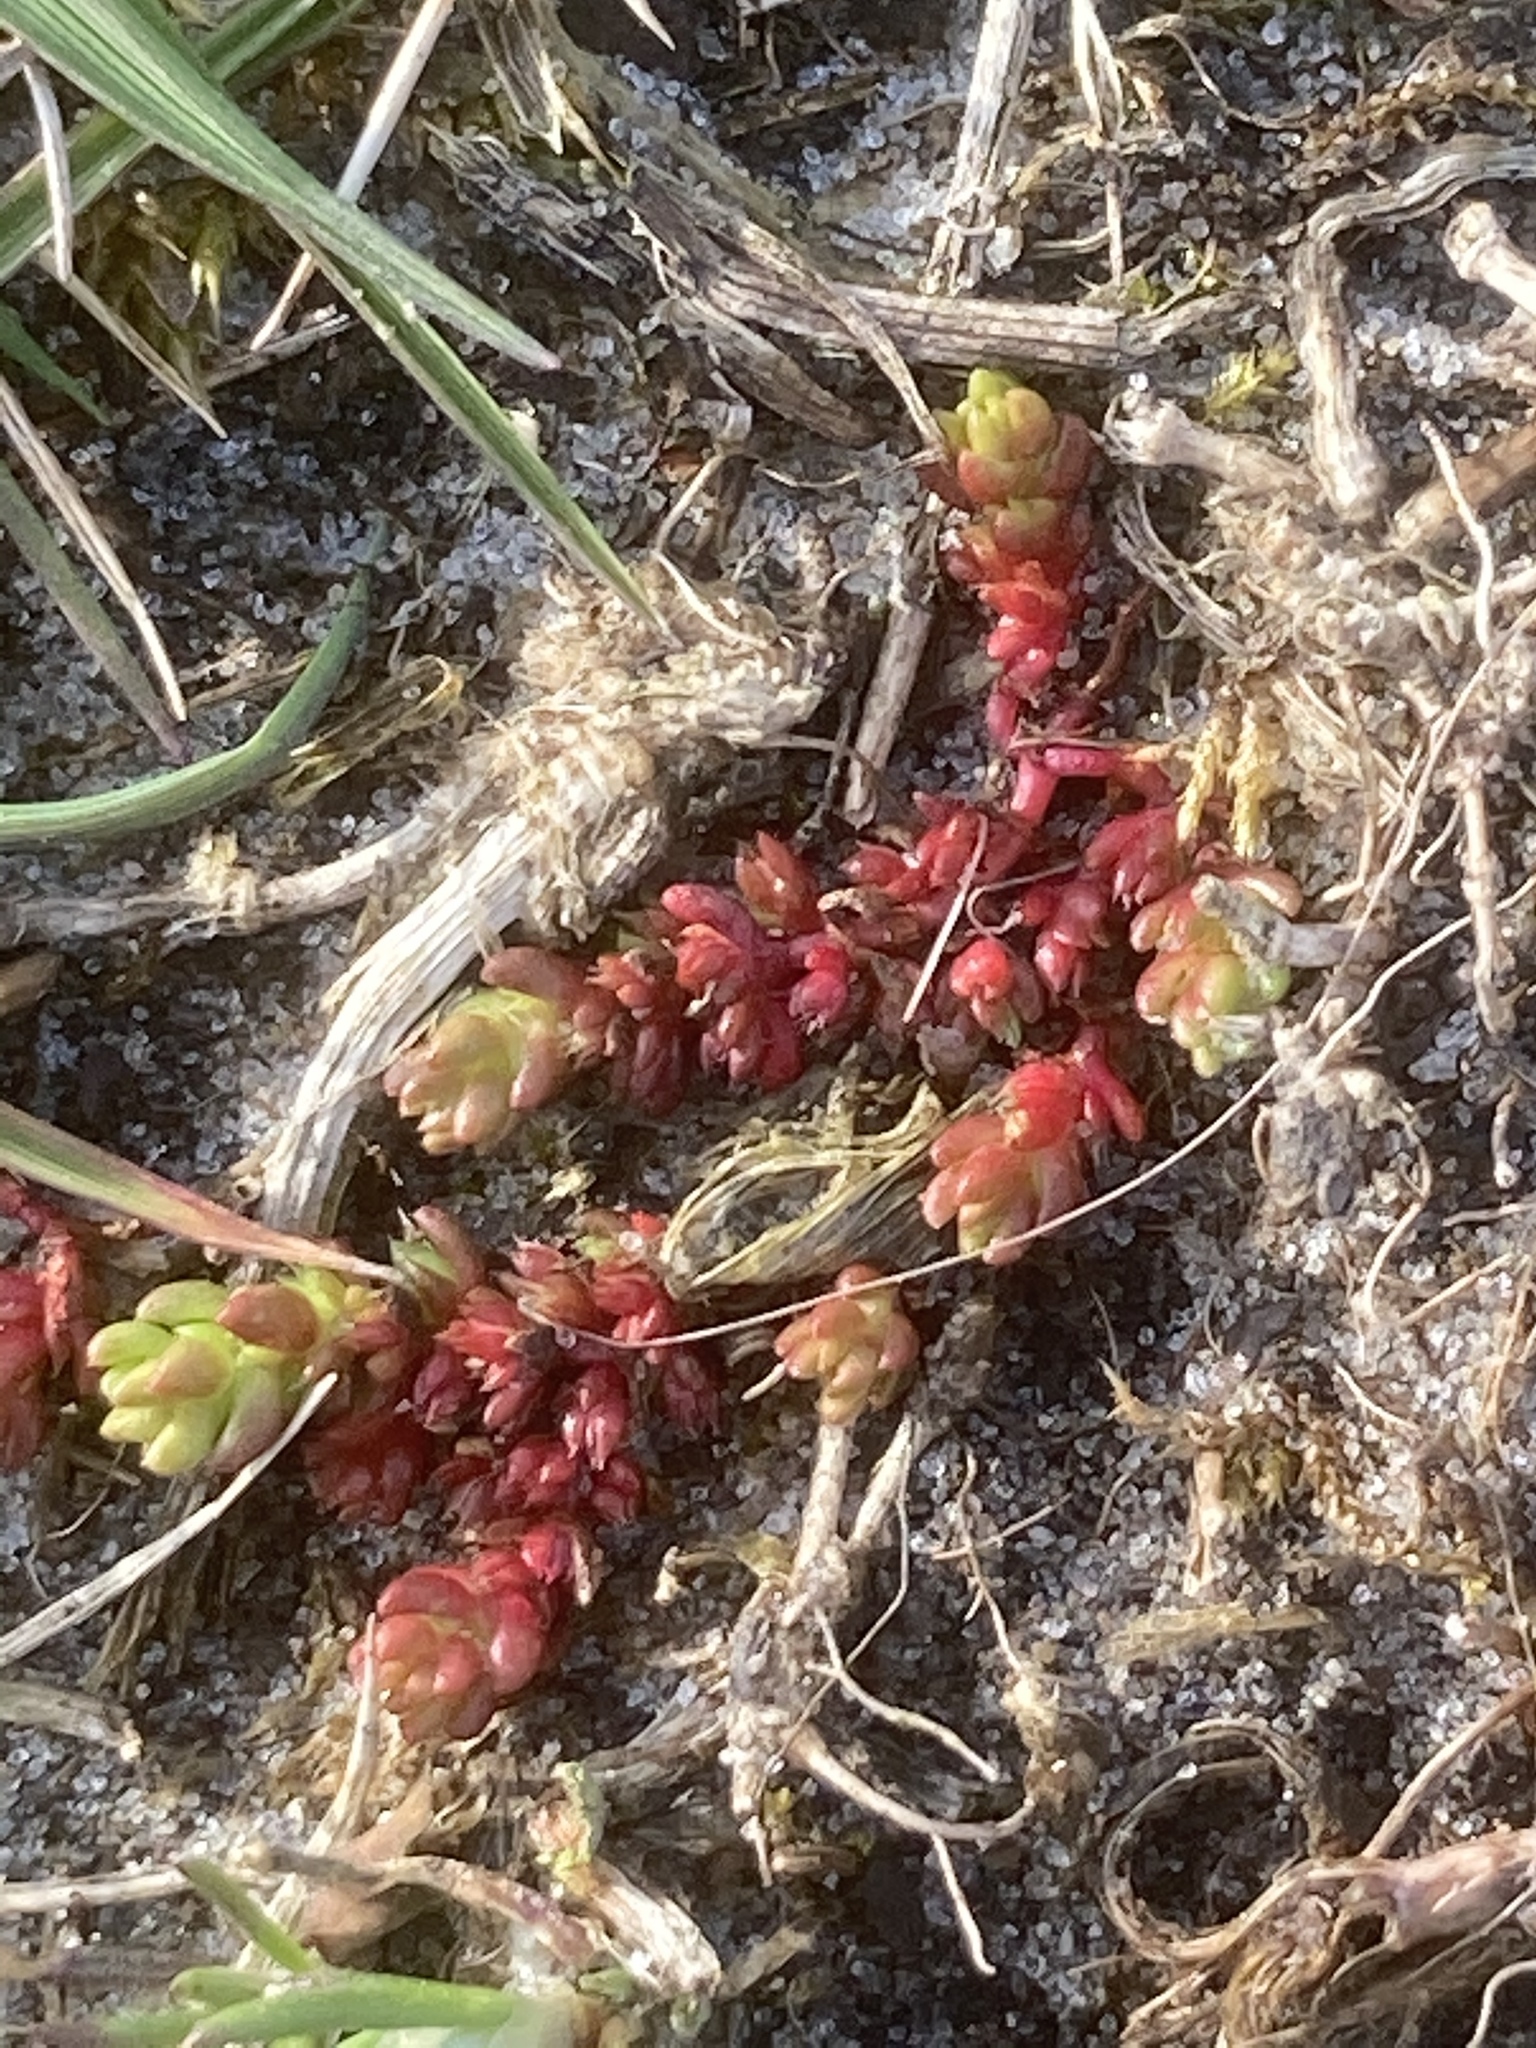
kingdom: Plantae
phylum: Tracheophyta
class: Magnoliopsida
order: Saxifragales
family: Crassulaceae
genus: Crassula
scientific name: Crassula tillaea
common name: Mossy stonecrop
